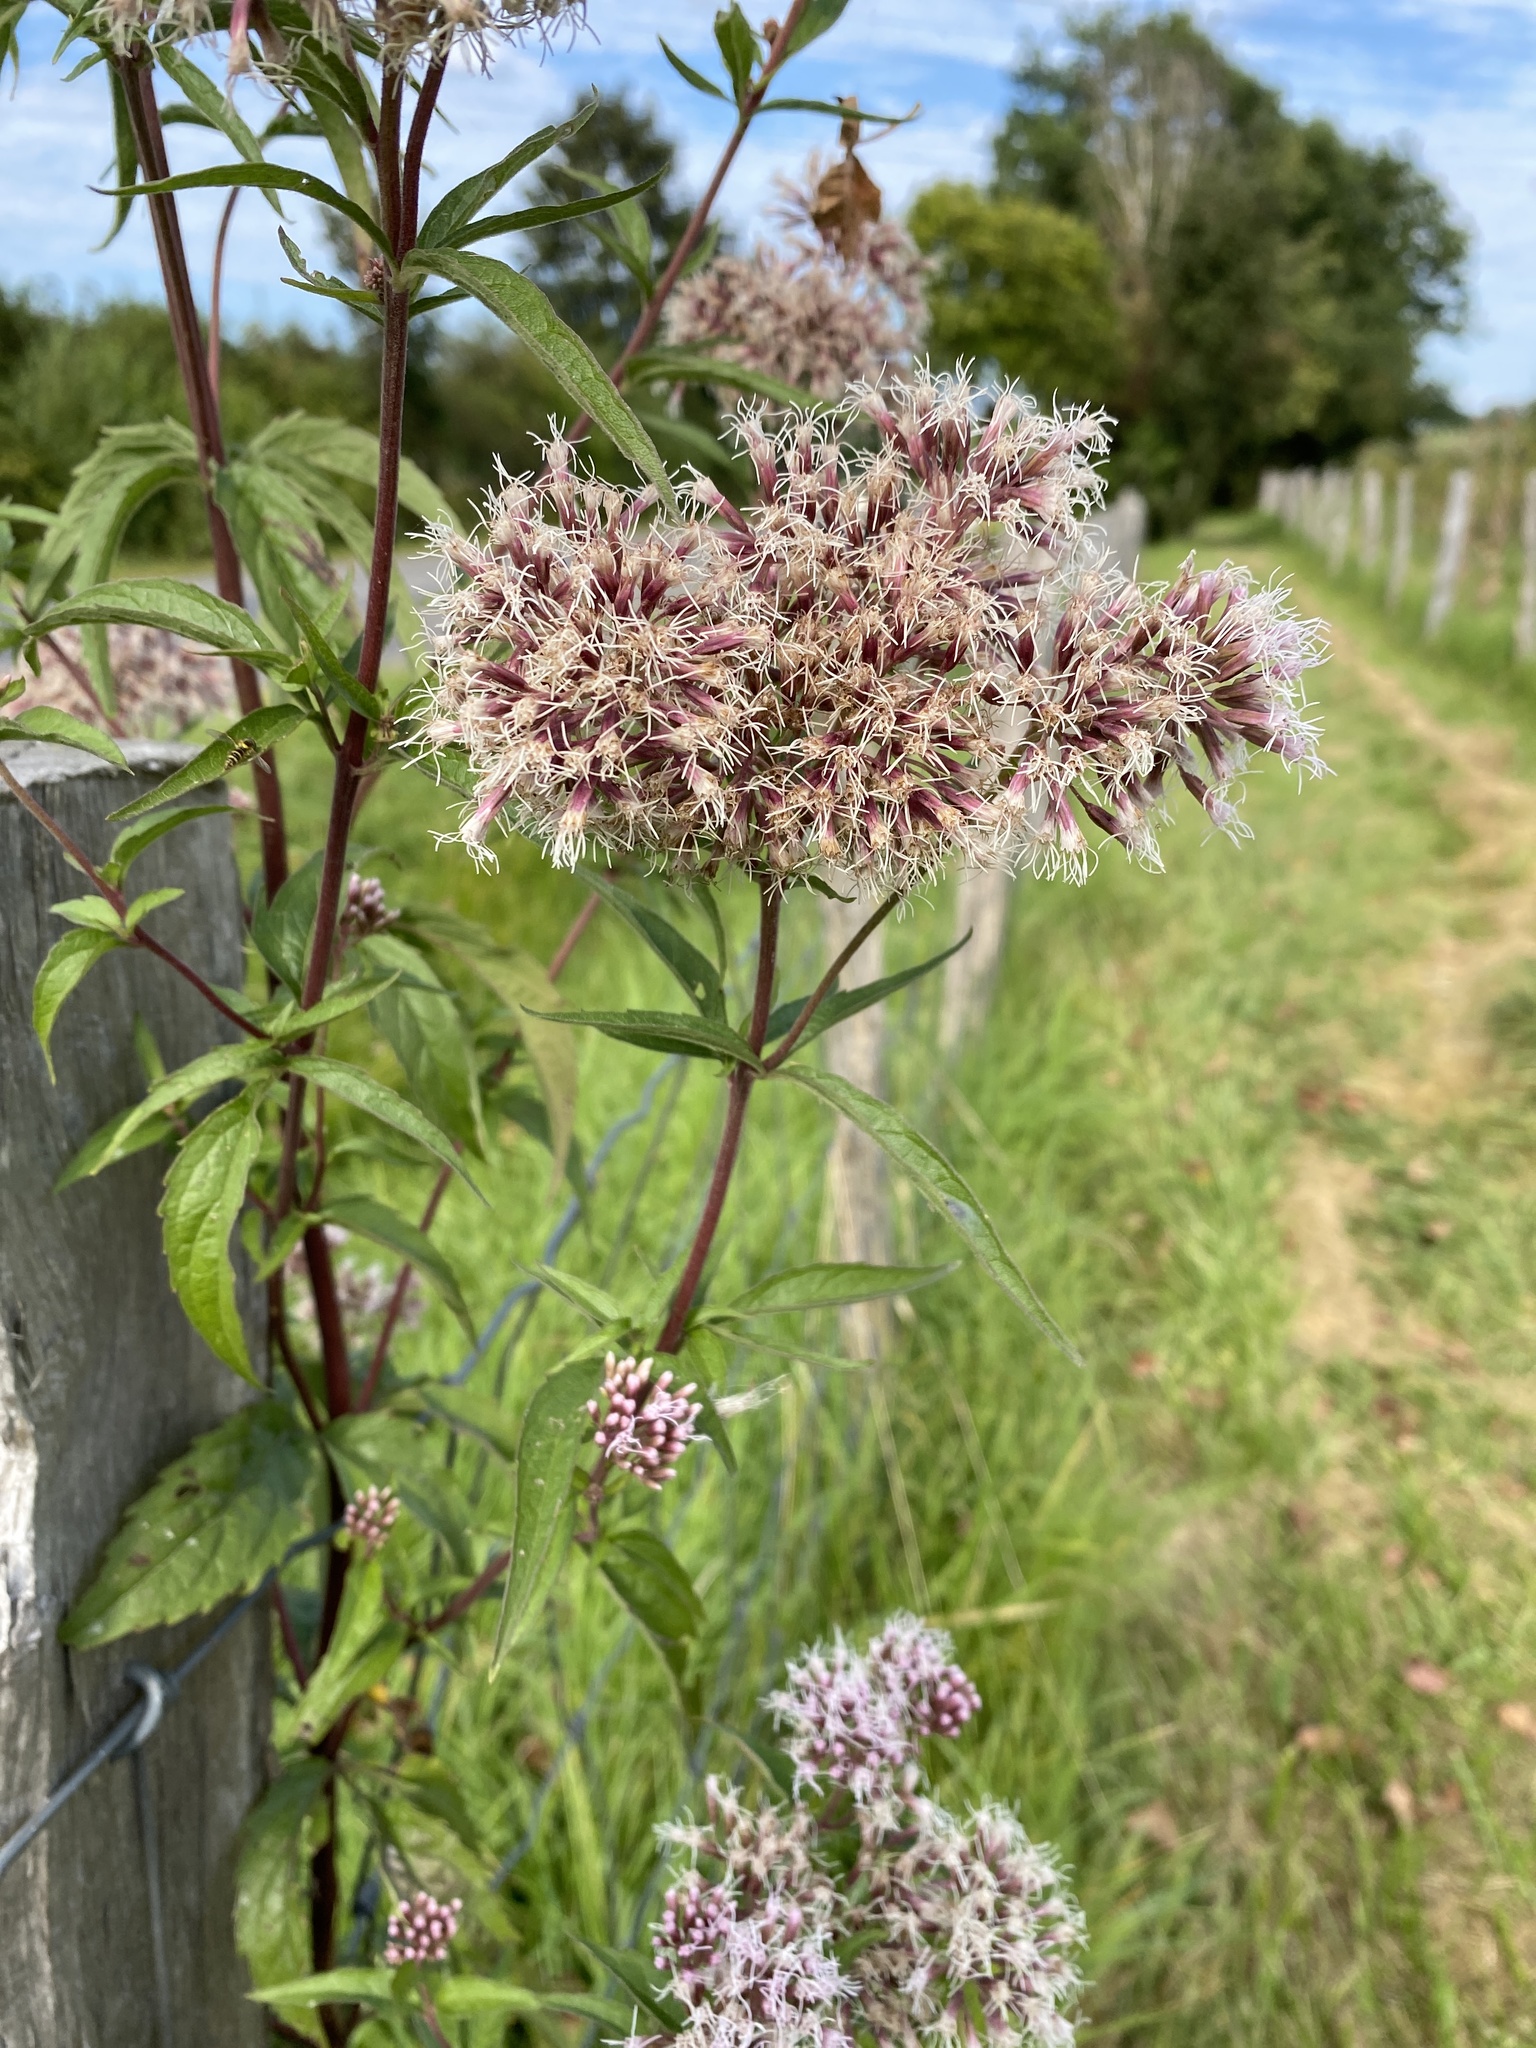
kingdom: Plantae
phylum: Tracheophyta
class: Magnoliopsida
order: Asterales
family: Asteraceae
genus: Eupatorium
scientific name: Eupatorium cannabinum
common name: Hemp-agrimony
